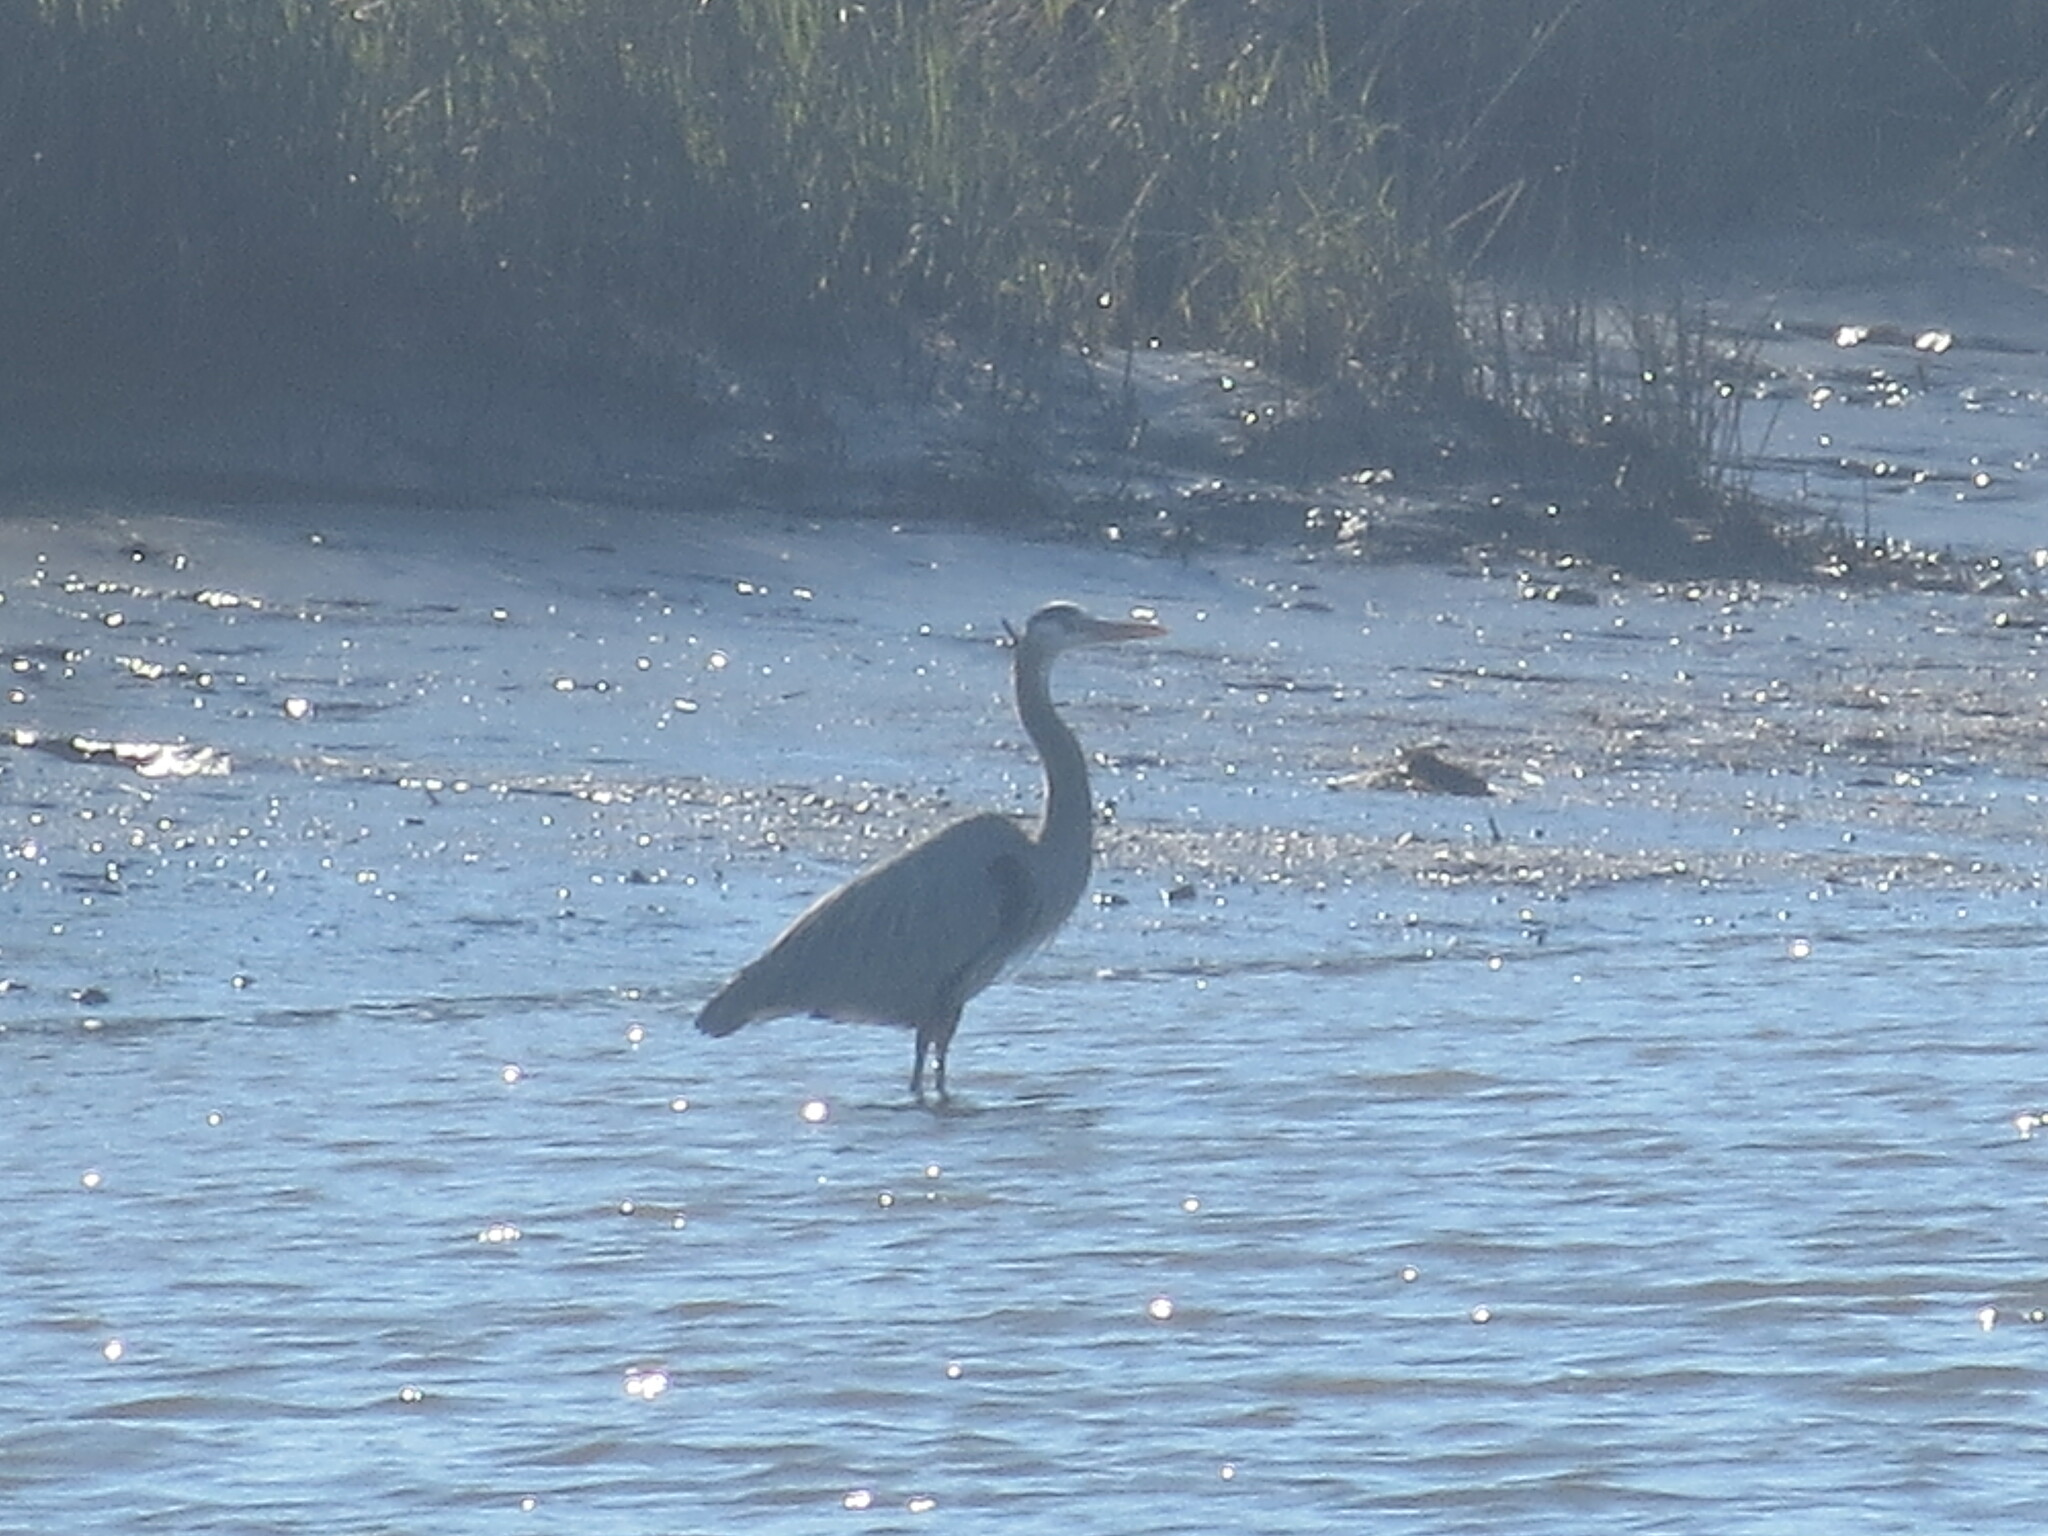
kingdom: Animalia
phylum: Chordata
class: Aves
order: Pelecaniformes
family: Ardeidae
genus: Ardea
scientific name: Ardea herodias
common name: Great blue heron
